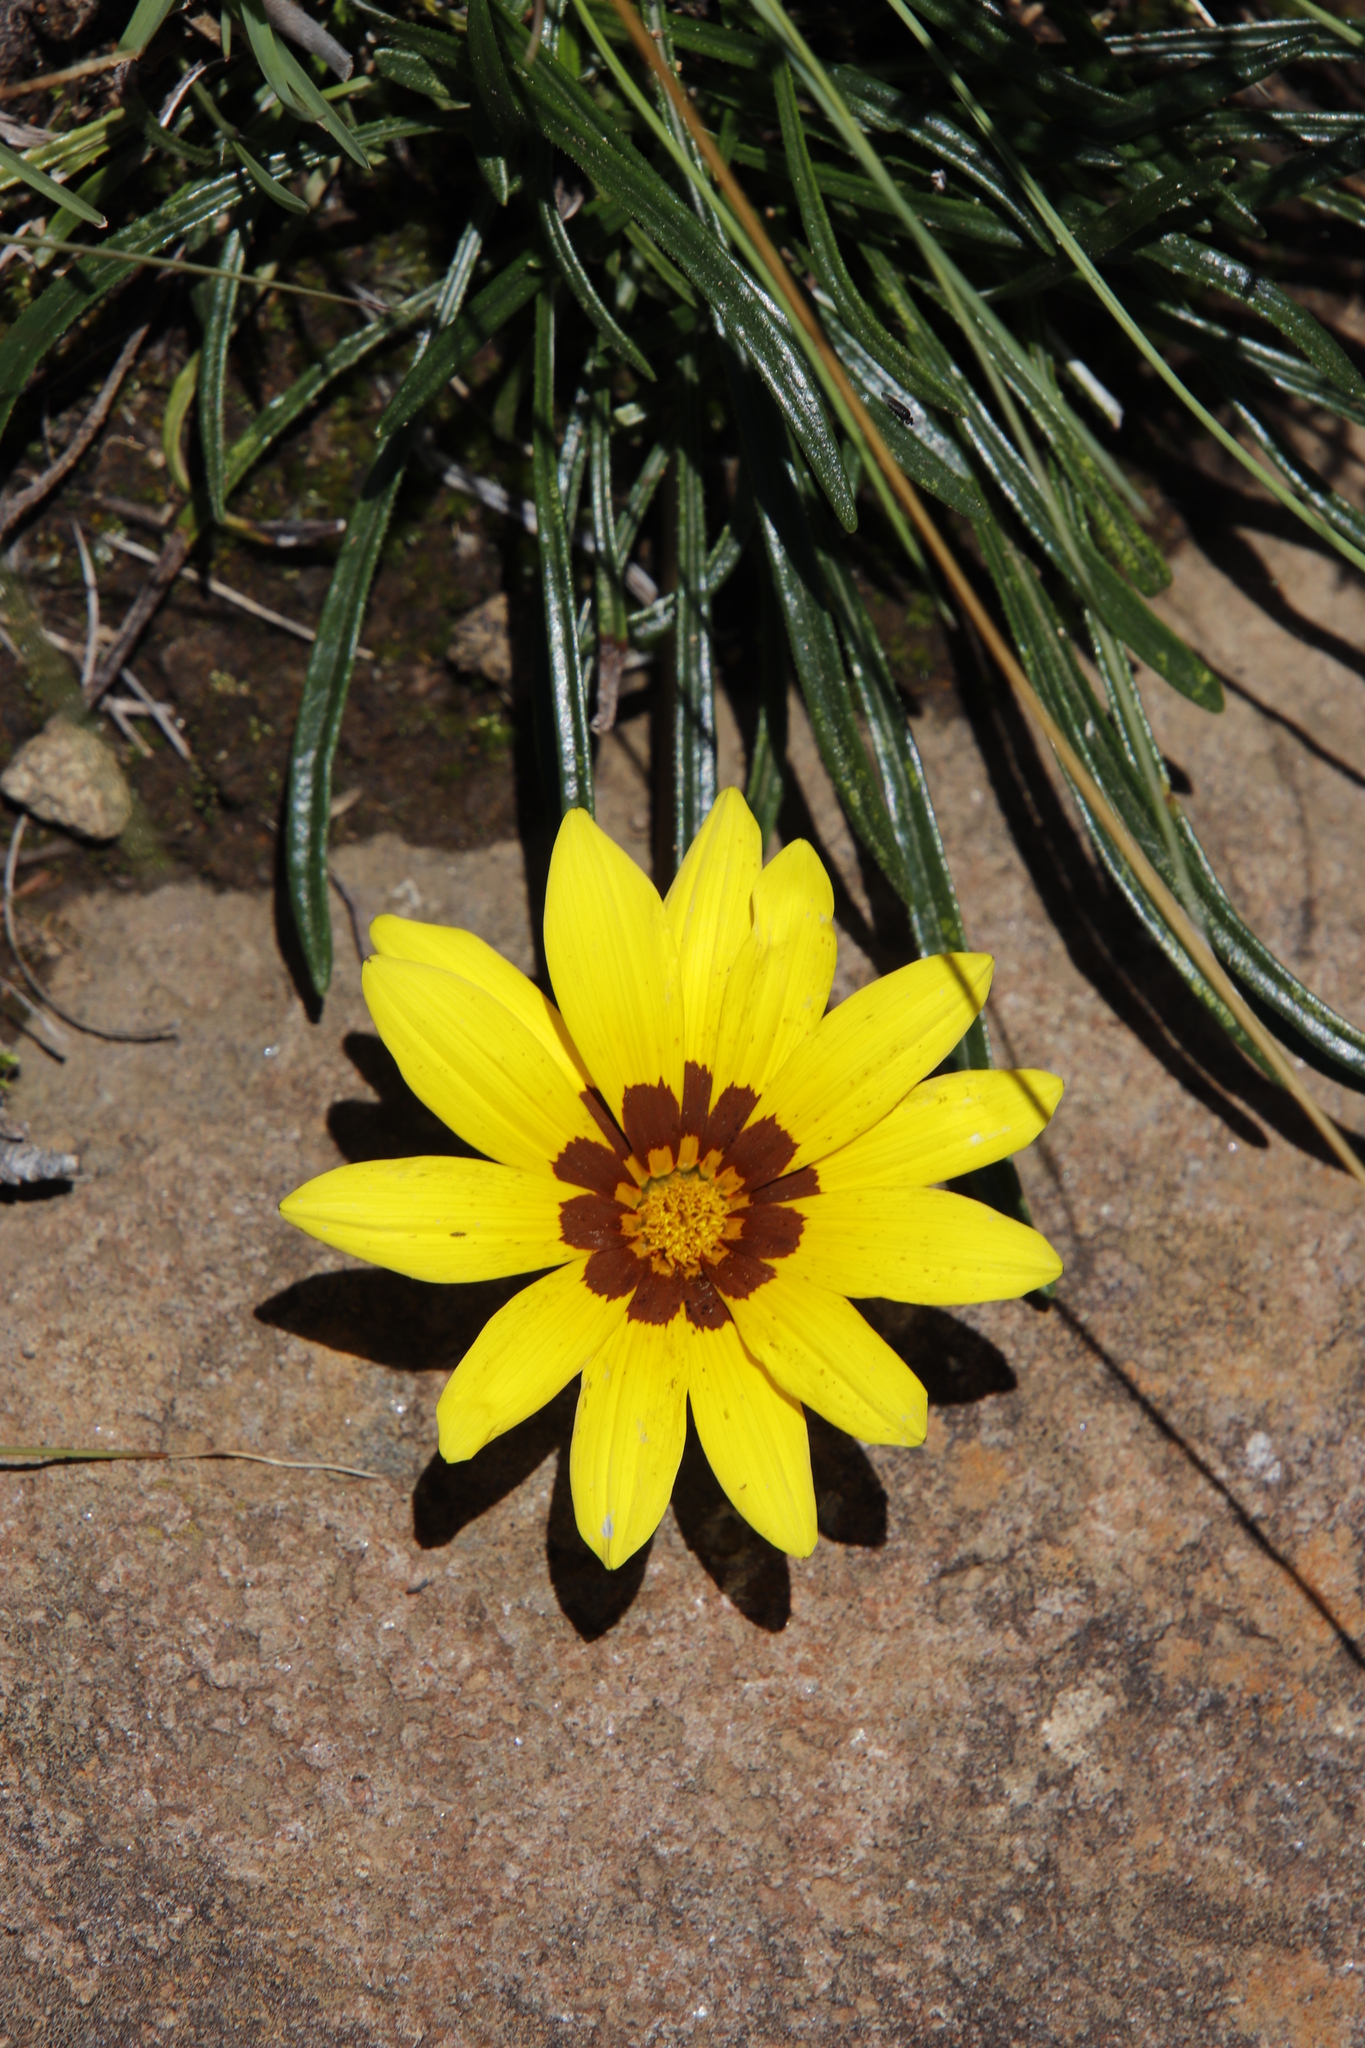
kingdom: Plantae
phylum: Tracheophyta
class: Magnoliopsida
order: Asterales
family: Asteraceae
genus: Gazania
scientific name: Gazania krebsiana
